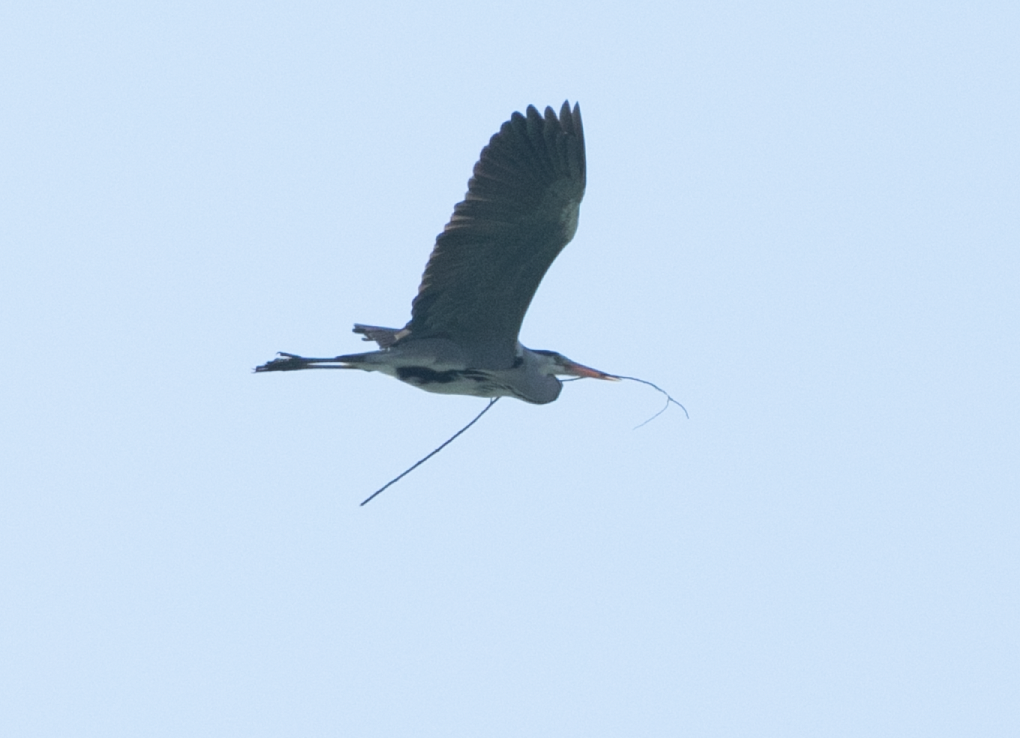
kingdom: Animalia
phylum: Chordata
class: Aves
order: Pelecaniformes
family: Ardeidae
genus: Ardea
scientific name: Ardea cinerea
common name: Grey heron
